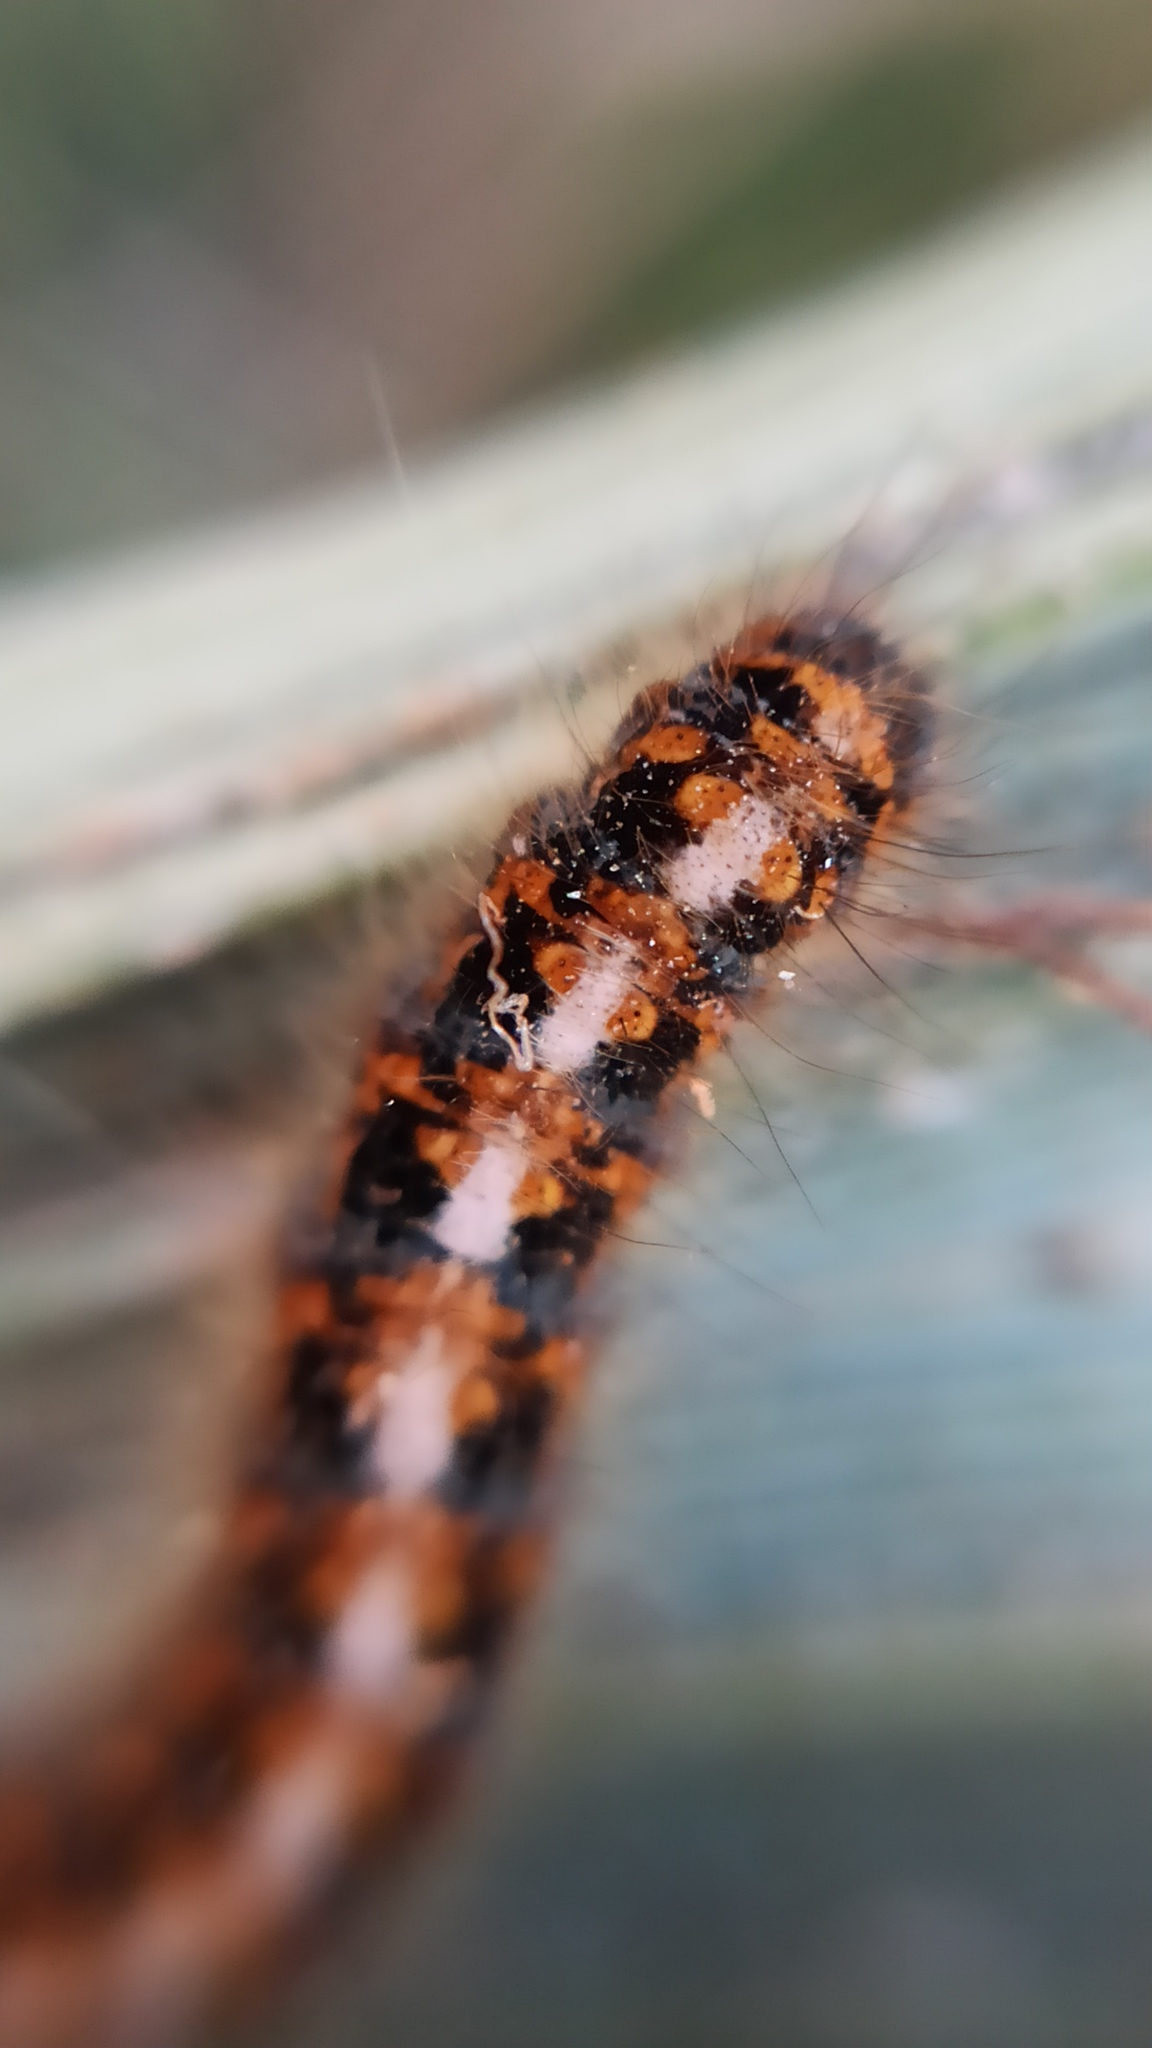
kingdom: Animalia
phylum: Arthropoda
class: Insecta
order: Lepidoptera
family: Lasiocampidae
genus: Lasiocampa
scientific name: Lasiocampa quercus
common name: Oak eggar
